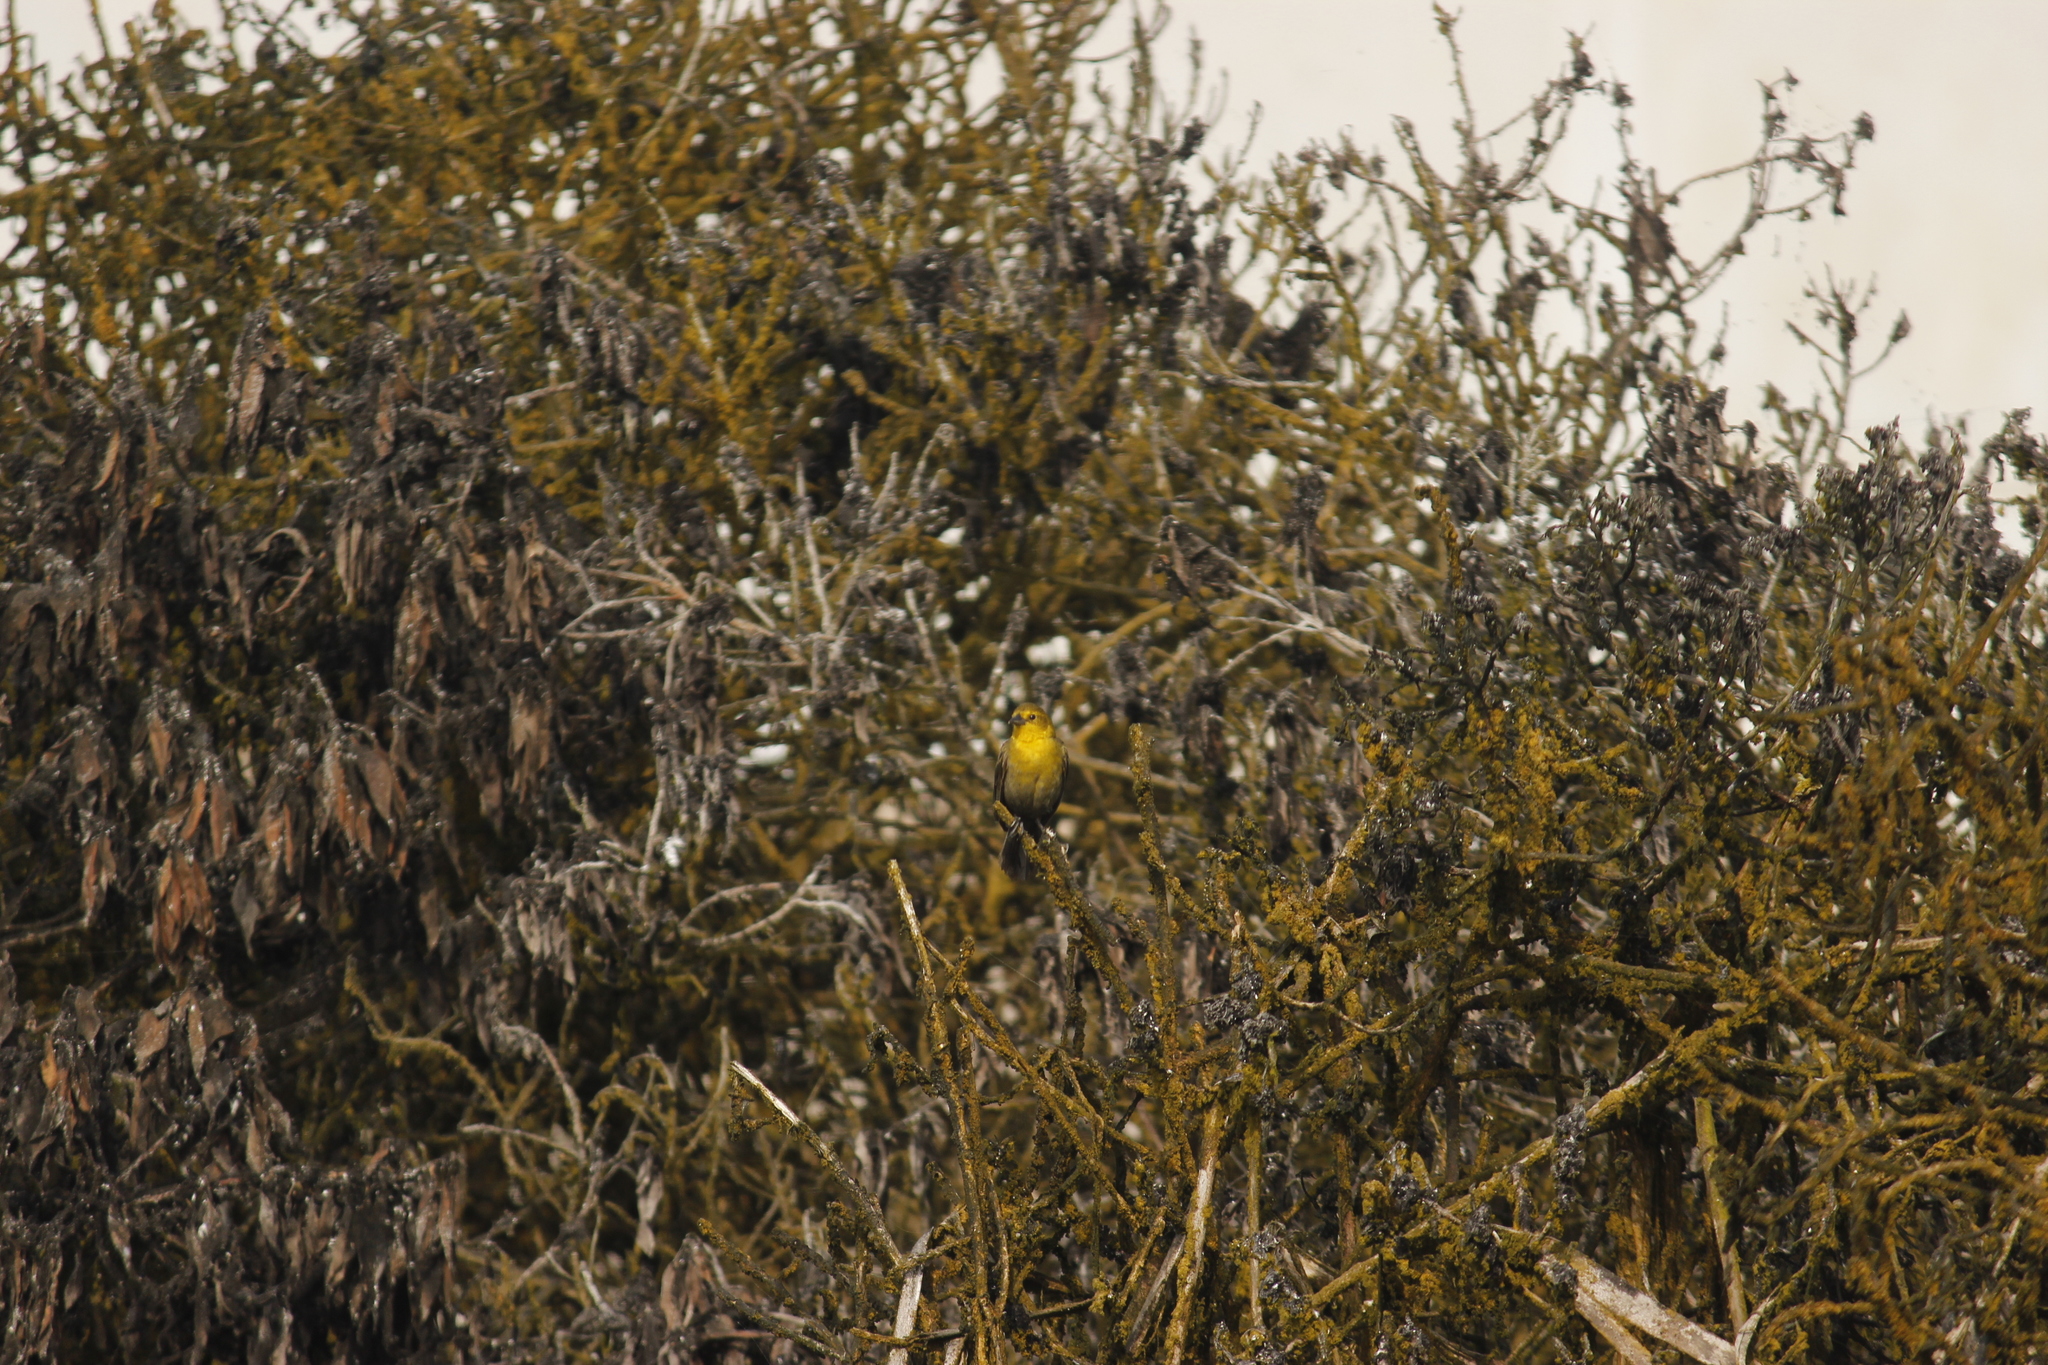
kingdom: Animalia
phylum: Chordata
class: Aves
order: Passeriformes
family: Icteridae
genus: Chrysomus
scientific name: Chrysomus icterocephalus
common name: Yellow-hooded blackbird
